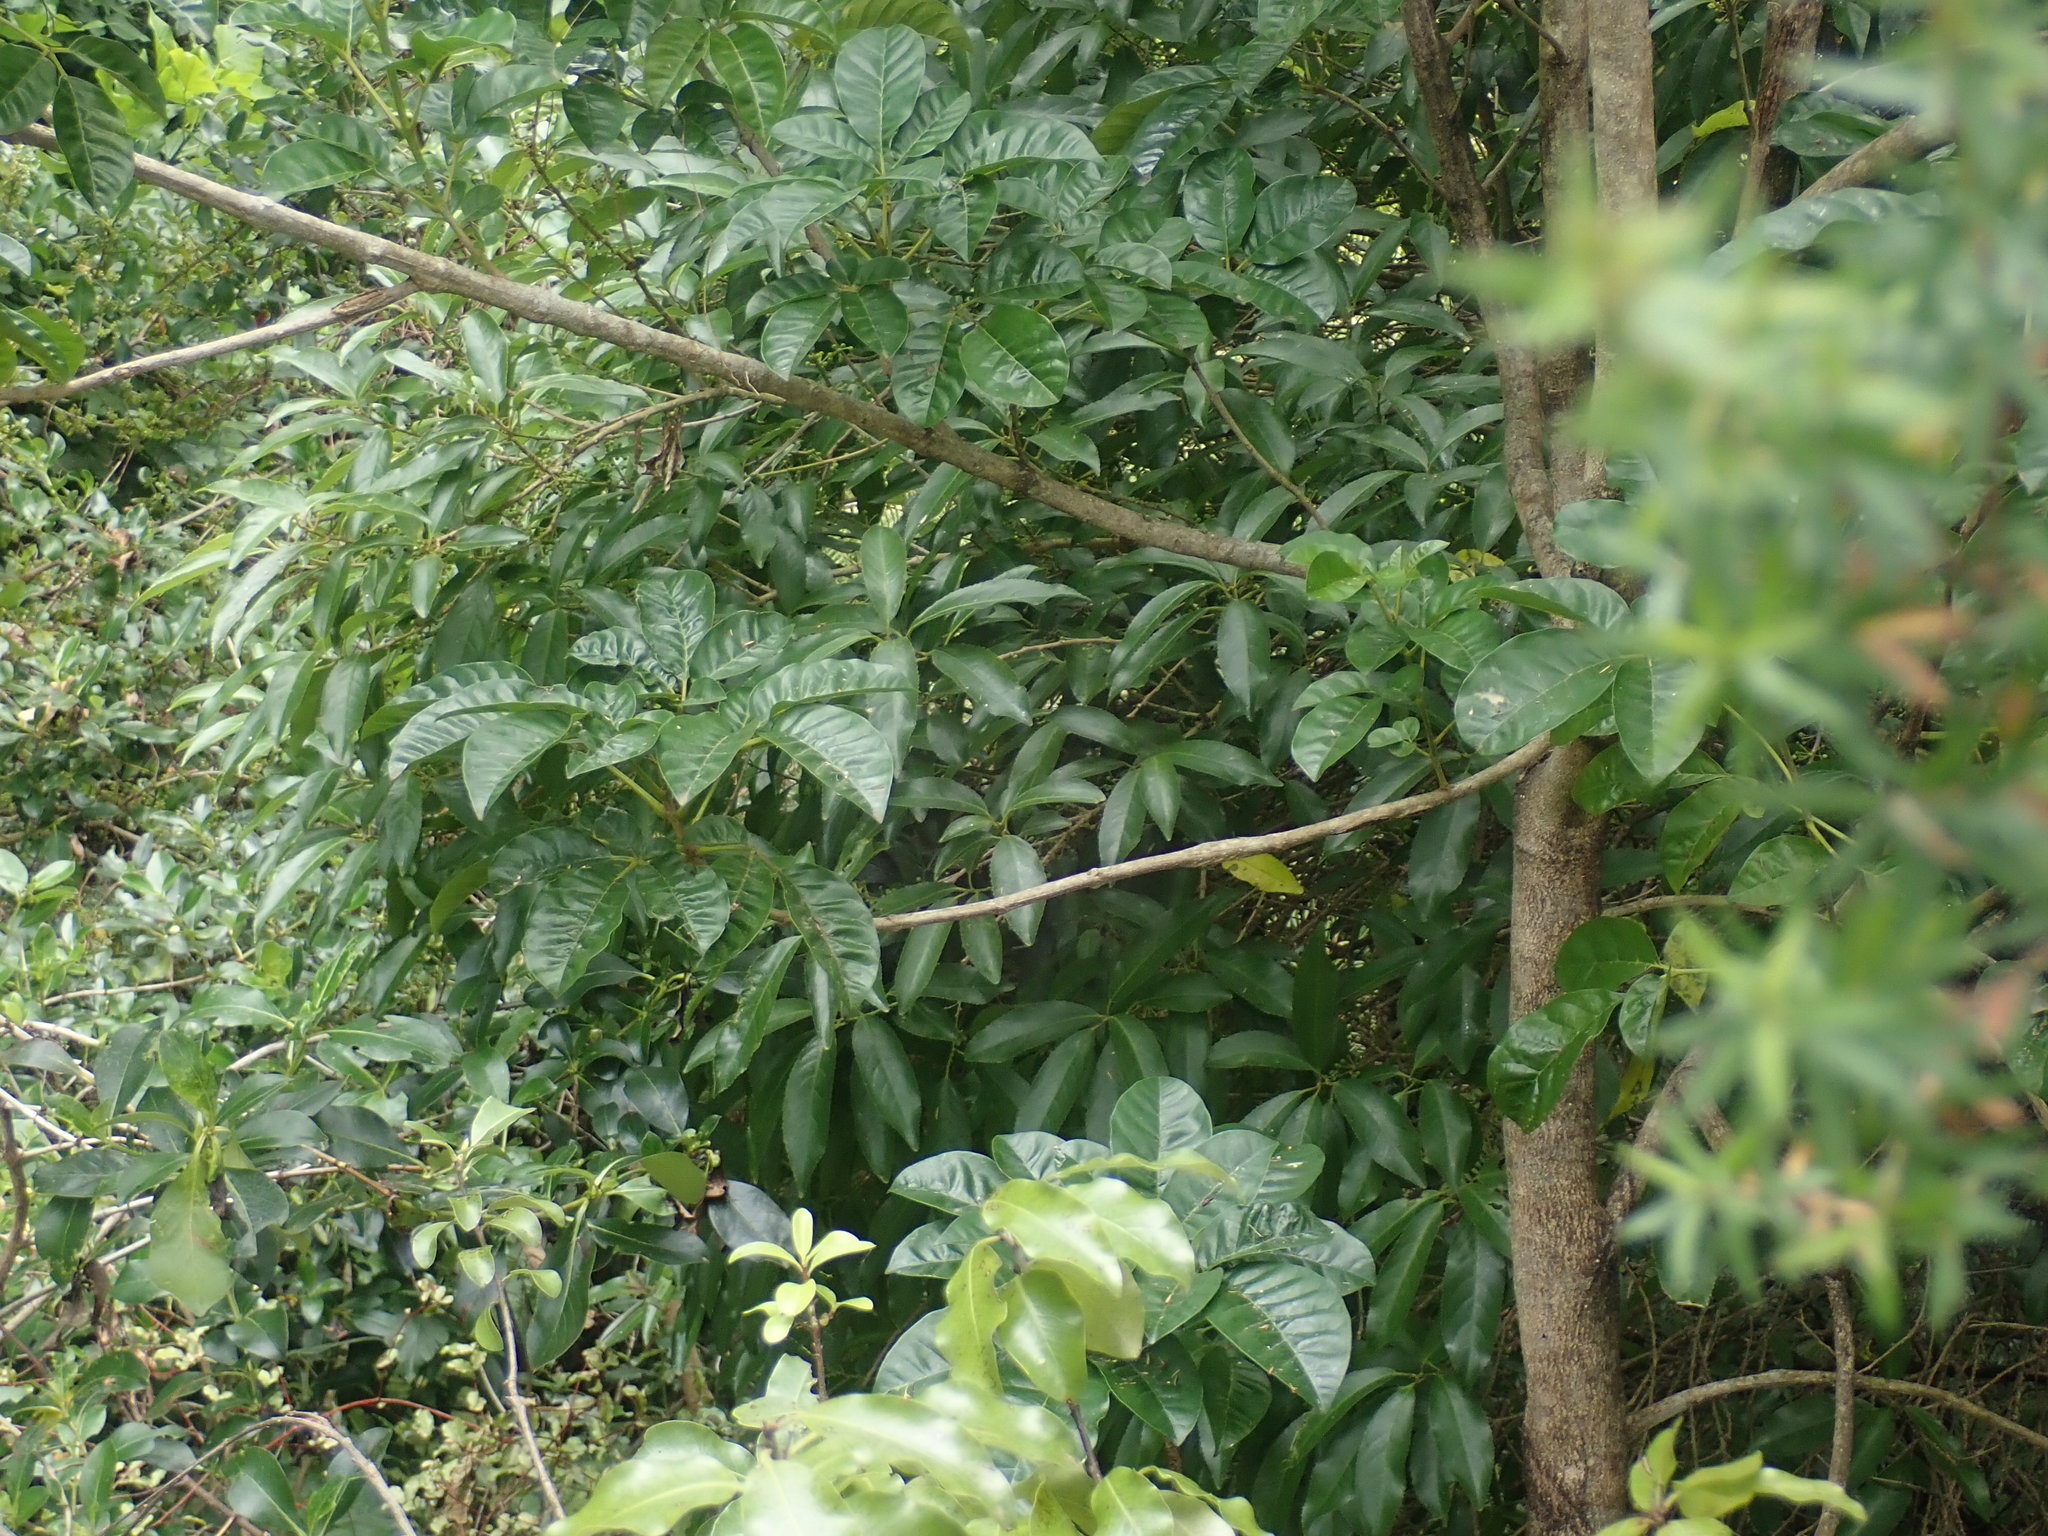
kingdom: Plantae
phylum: Tracheophyta
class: Magnoliopsida
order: Malpighiales
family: Violaceae
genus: Melicytus
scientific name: Melicytus ramiflorus
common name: Mahoe
